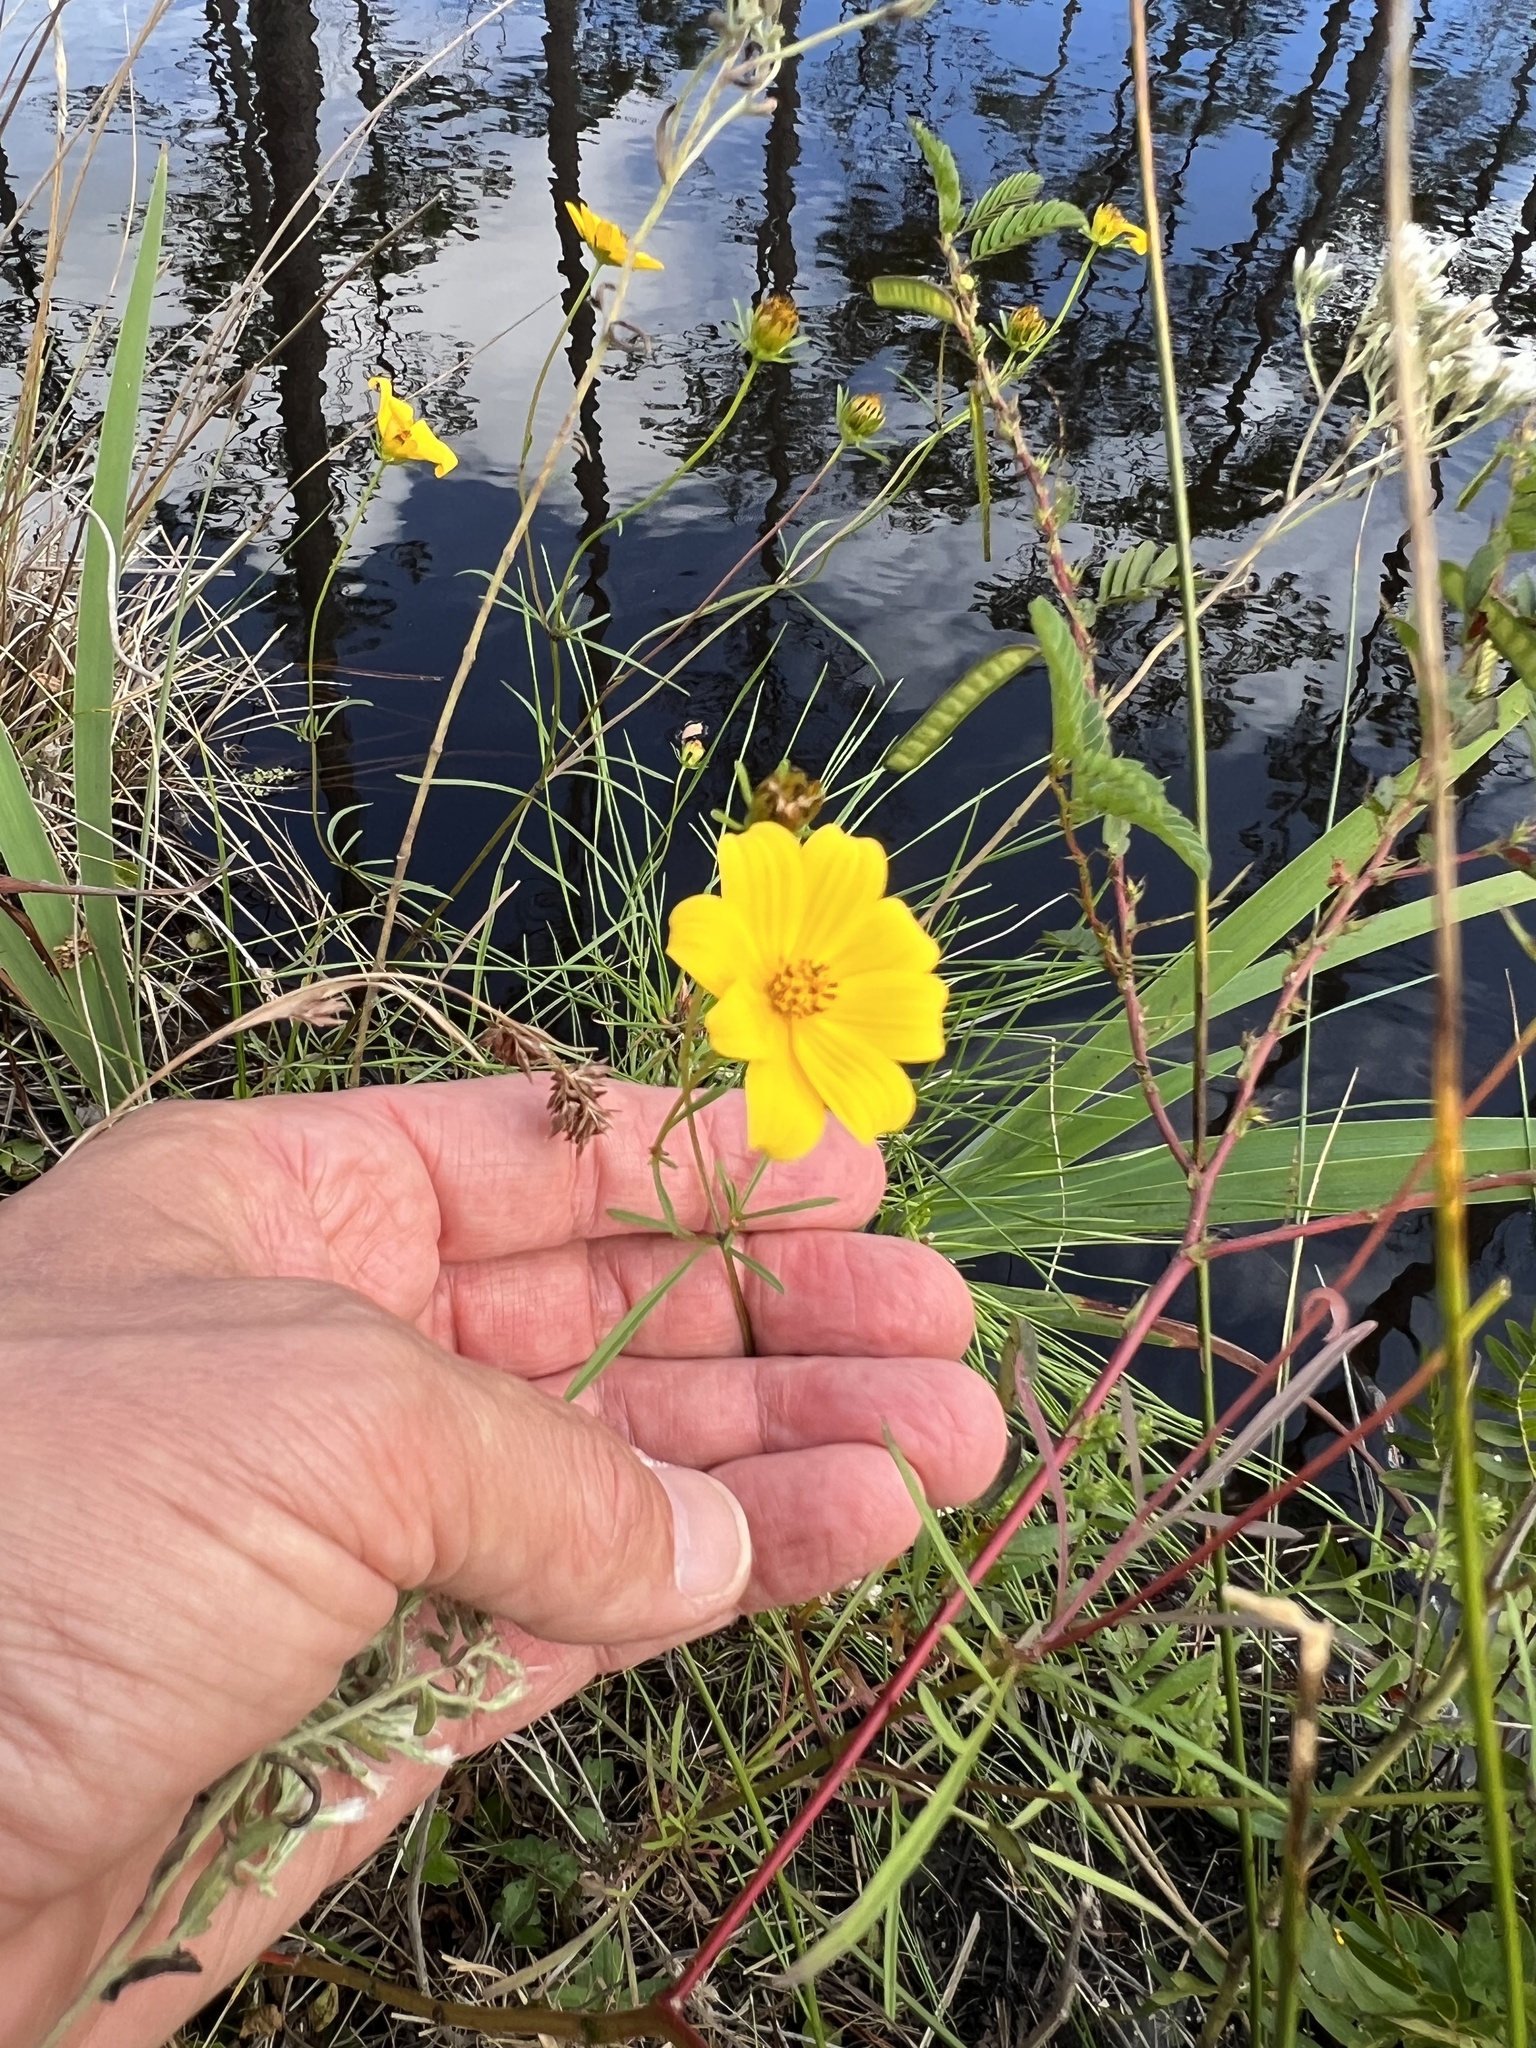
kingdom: Plantae
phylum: Tracheophyta
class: Magnoliopsida
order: Asterales
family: Asteraceae
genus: Bidens
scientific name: Bidens trichosperma
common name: Crowned beggarticks
